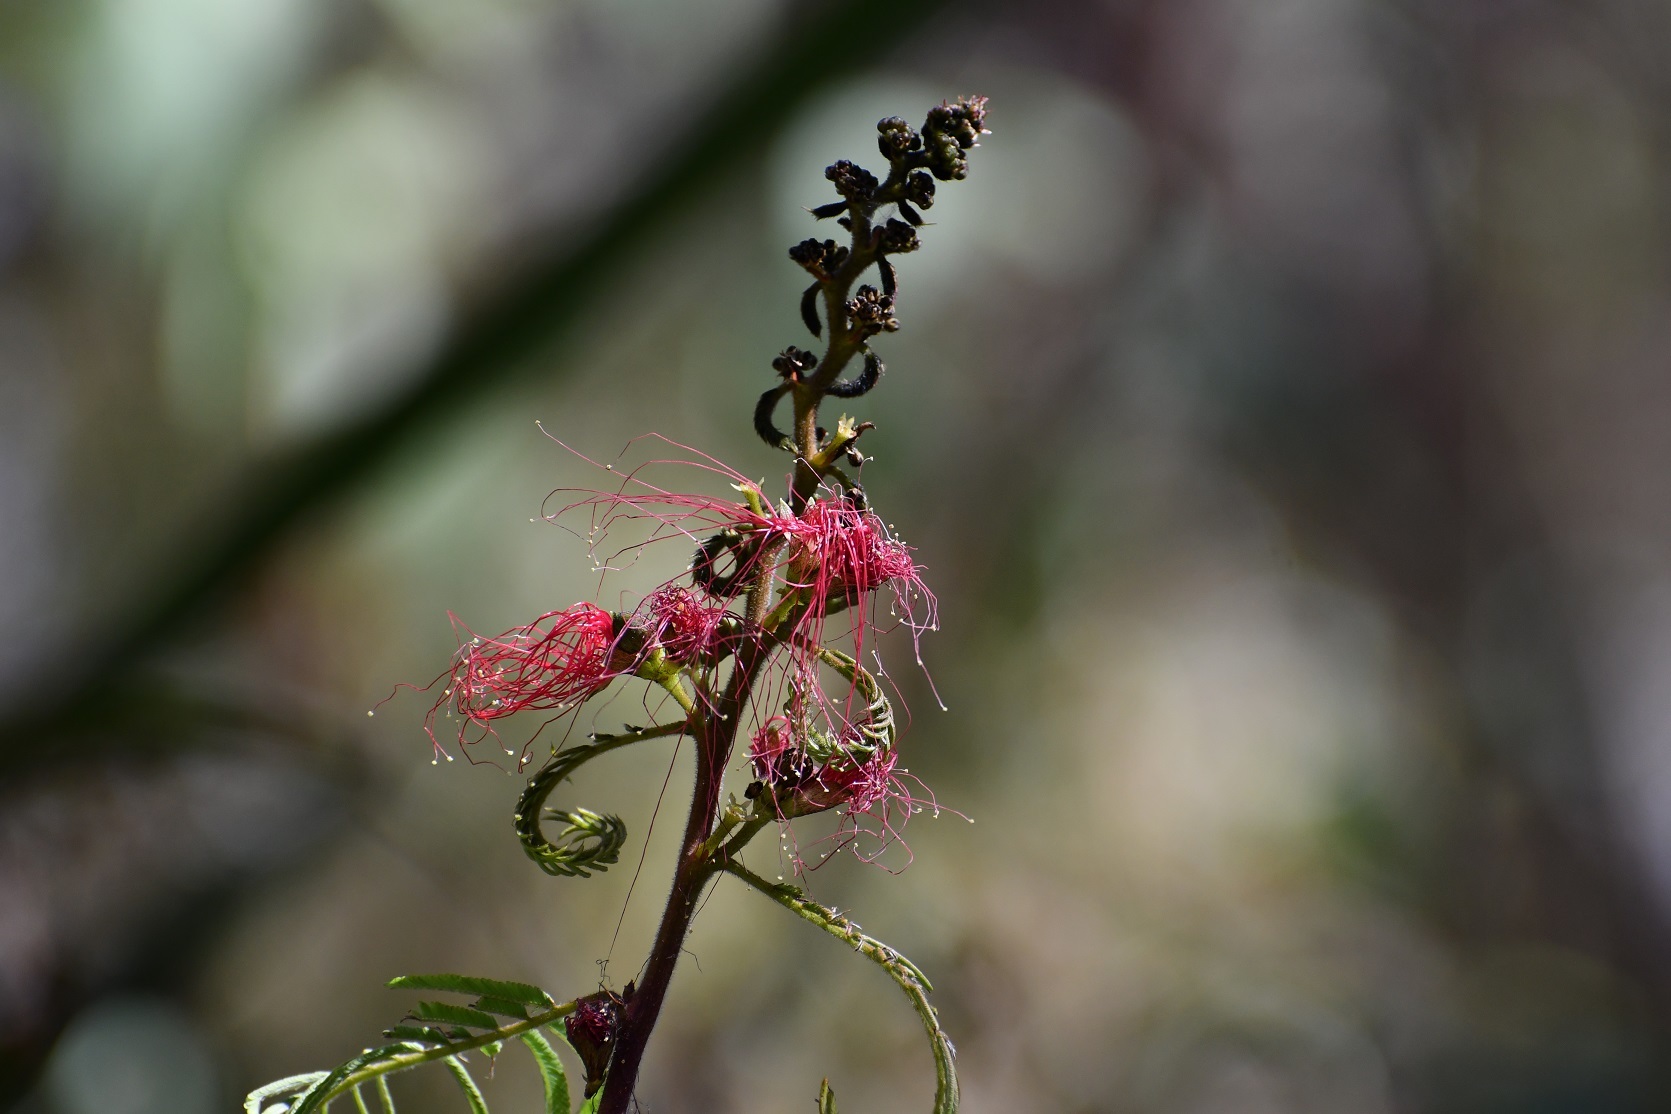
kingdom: Plantae
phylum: Tracheophyta
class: Magnoliopsida
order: Fabales
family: Fabaceae
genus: Calliandra
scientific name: Calliandra houstoniana
